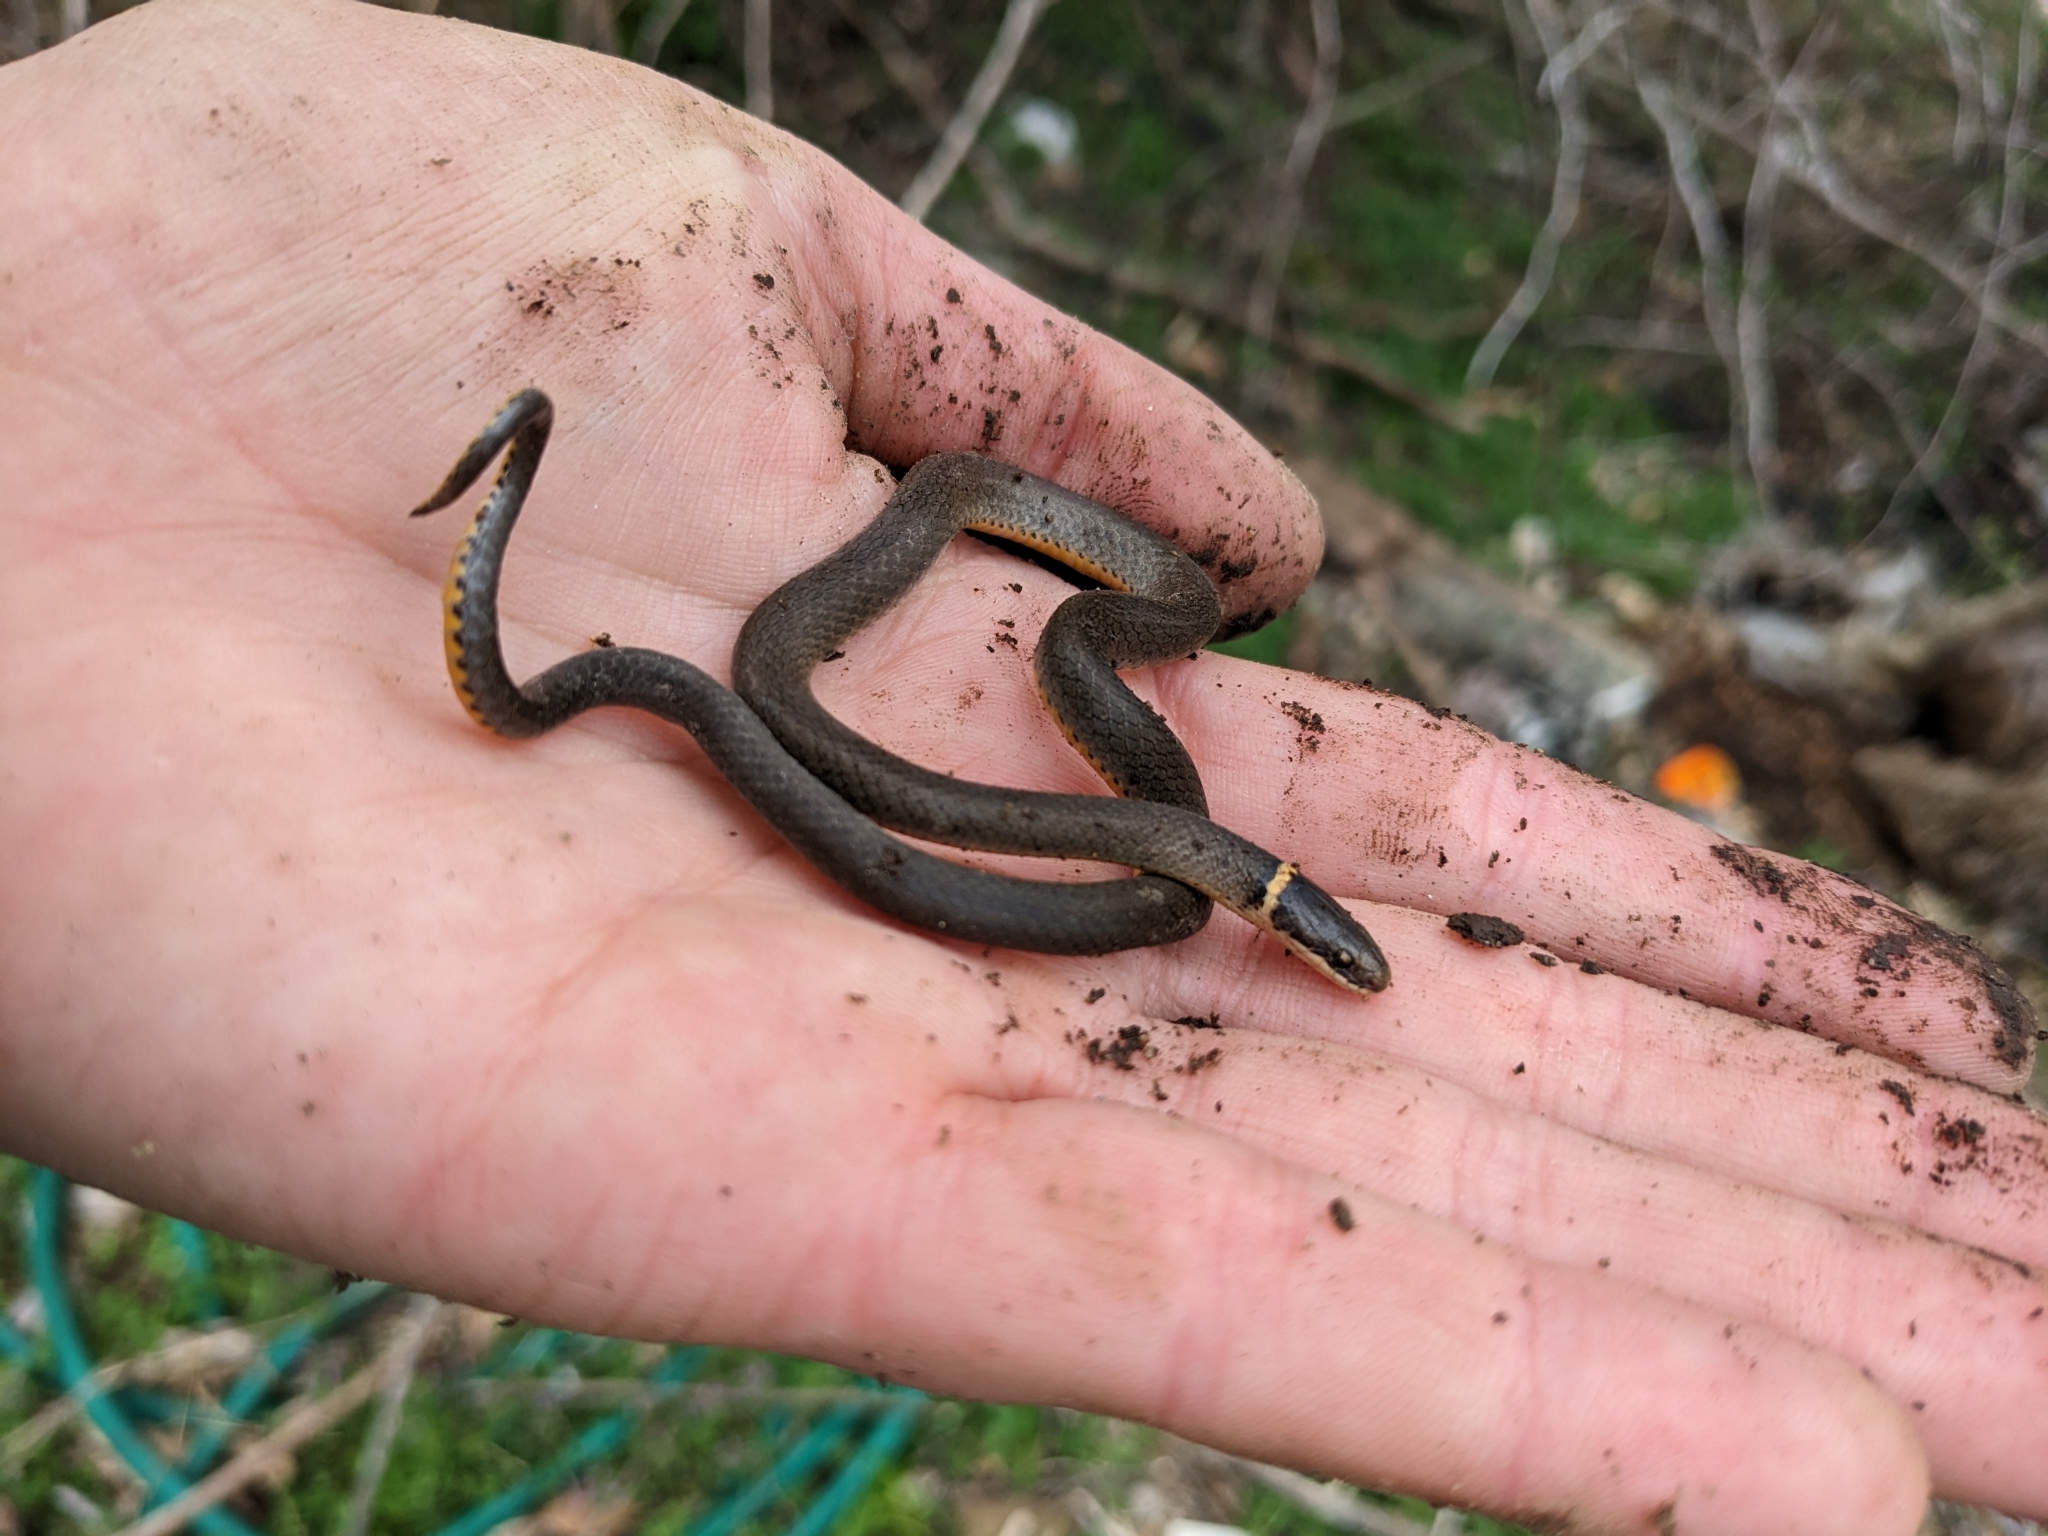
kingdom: Animalia
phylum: Chordata
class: Squamata
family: Colubridae
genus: Diadophis
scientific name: Diadophis punctatus
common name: Ringneck snake
